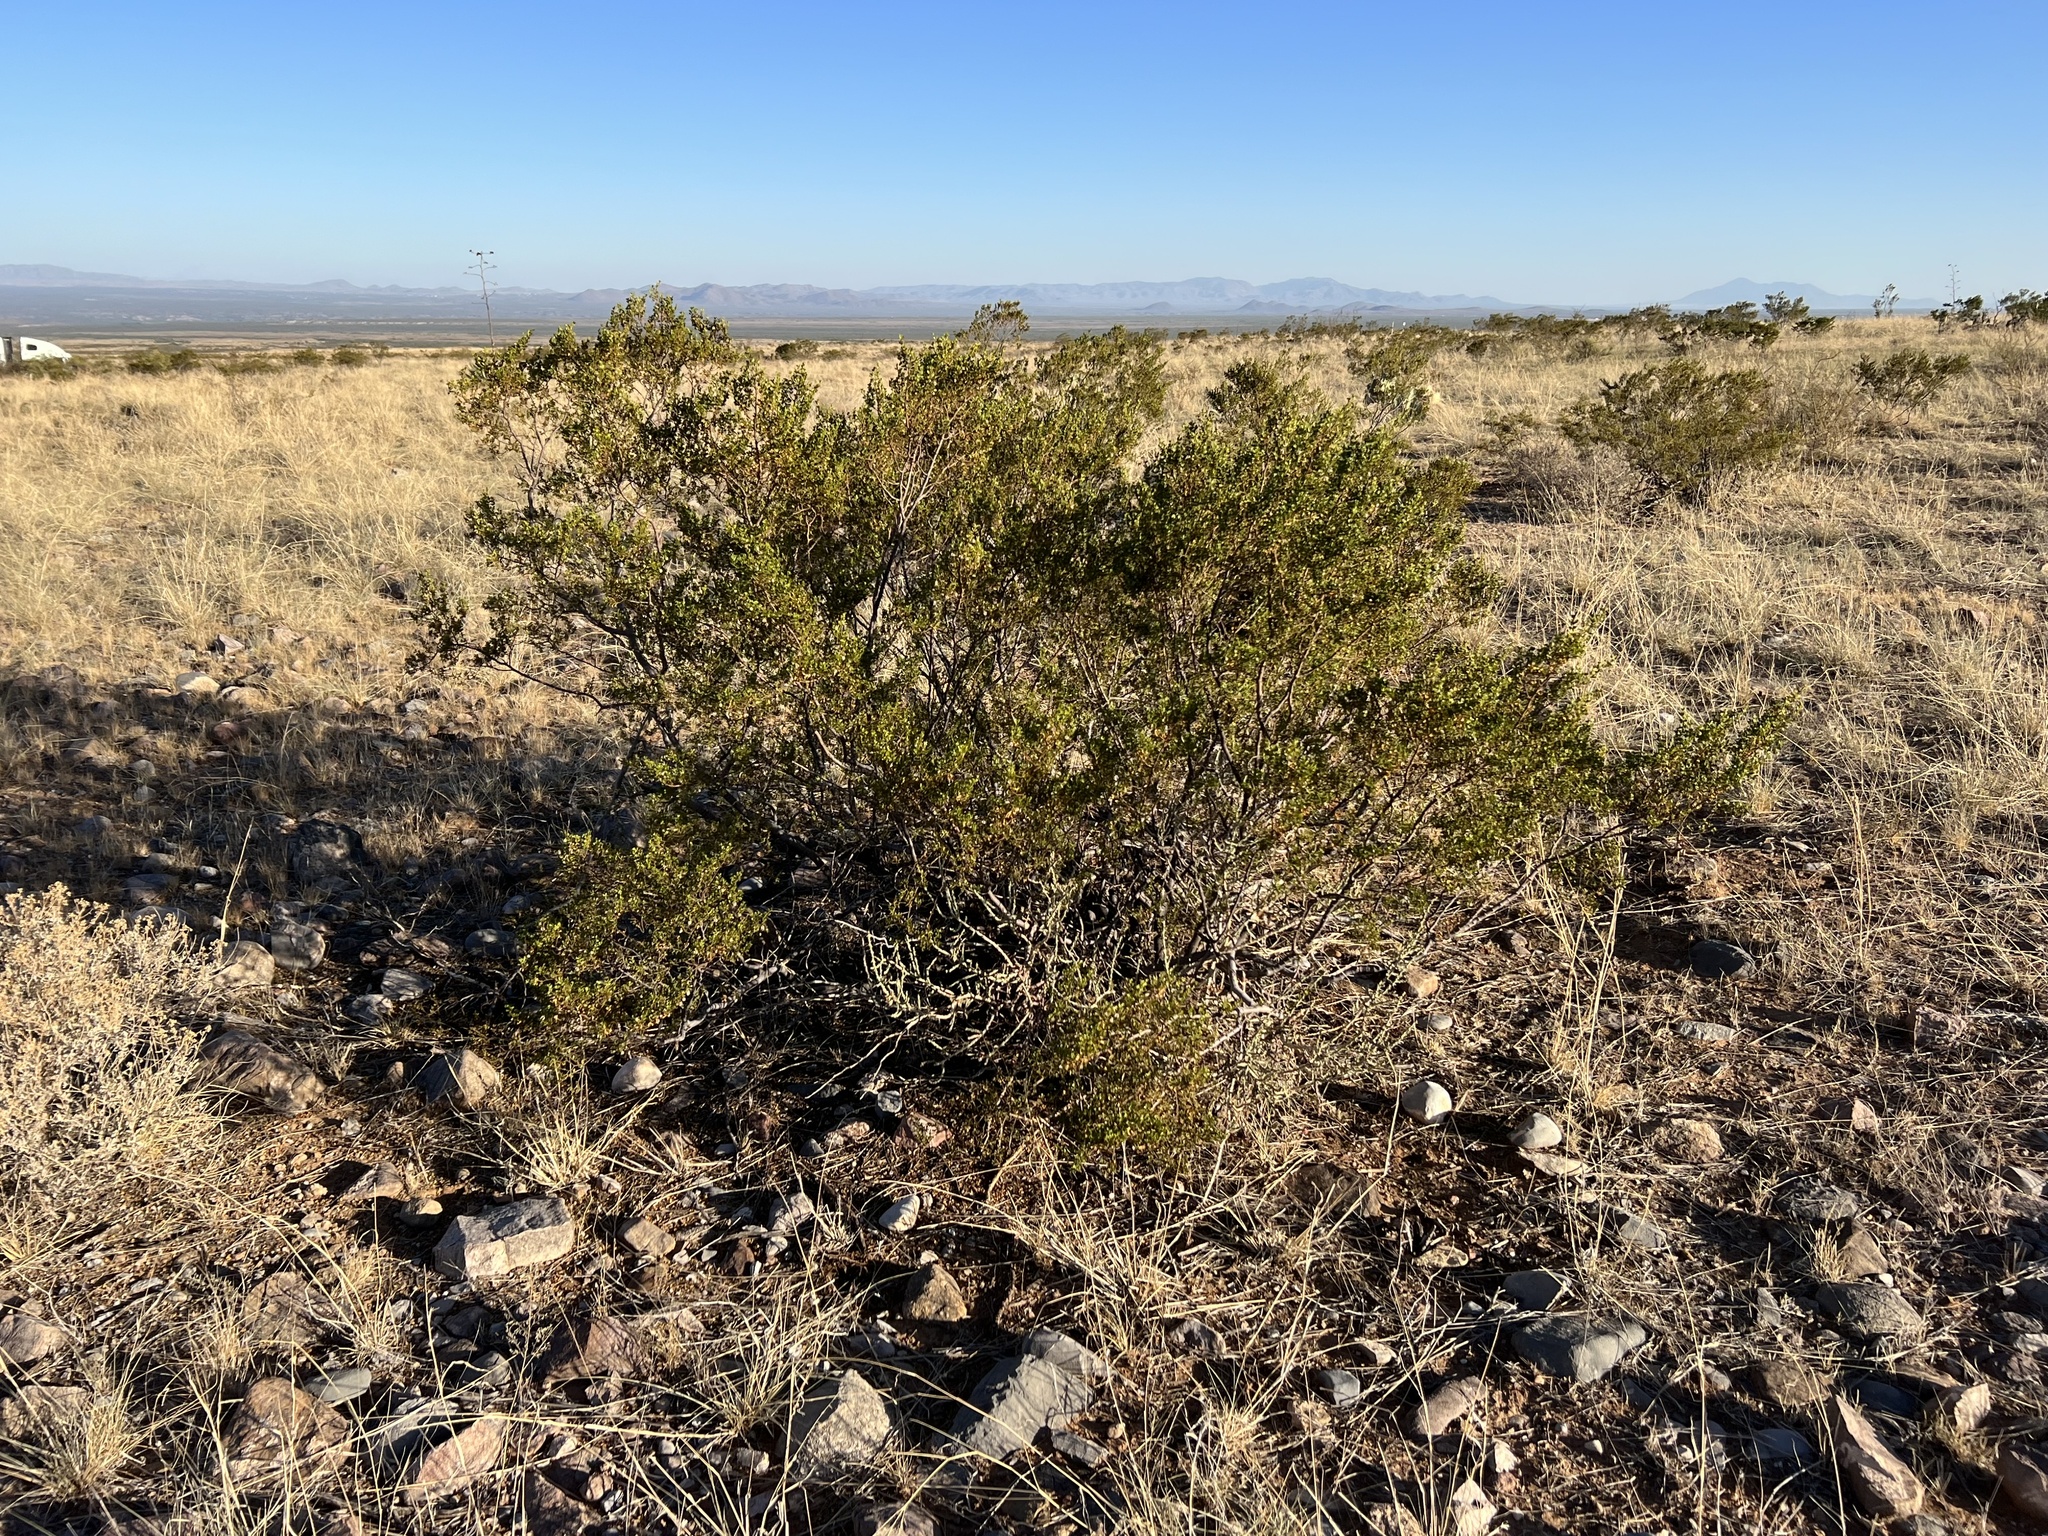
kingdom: Plantae
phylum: Tracheophyta
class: Magnoliopsida
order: Zygophyllales
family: Zygophyllaceae
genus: Larrea
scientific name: Larrea tridentata
